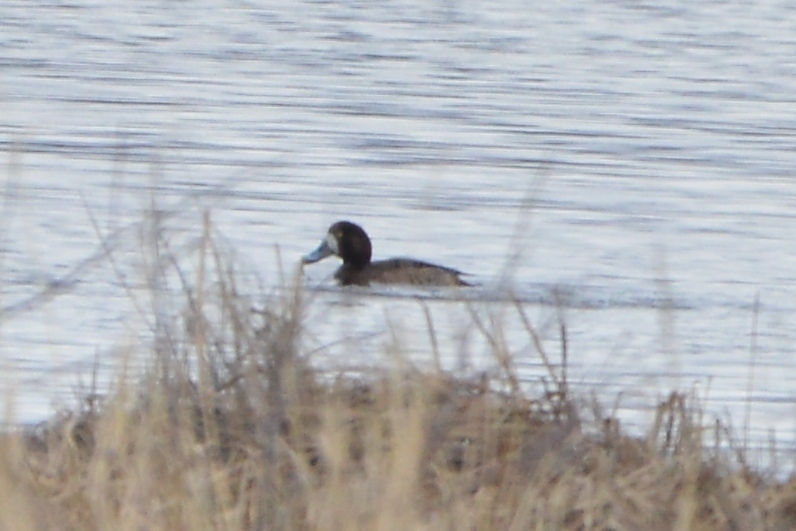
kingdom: Animalia
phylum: Chordata
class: Aves
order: Anseriformes
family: Anatidae
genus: Aythya
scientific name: Aythya marila
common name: Greater scaup
